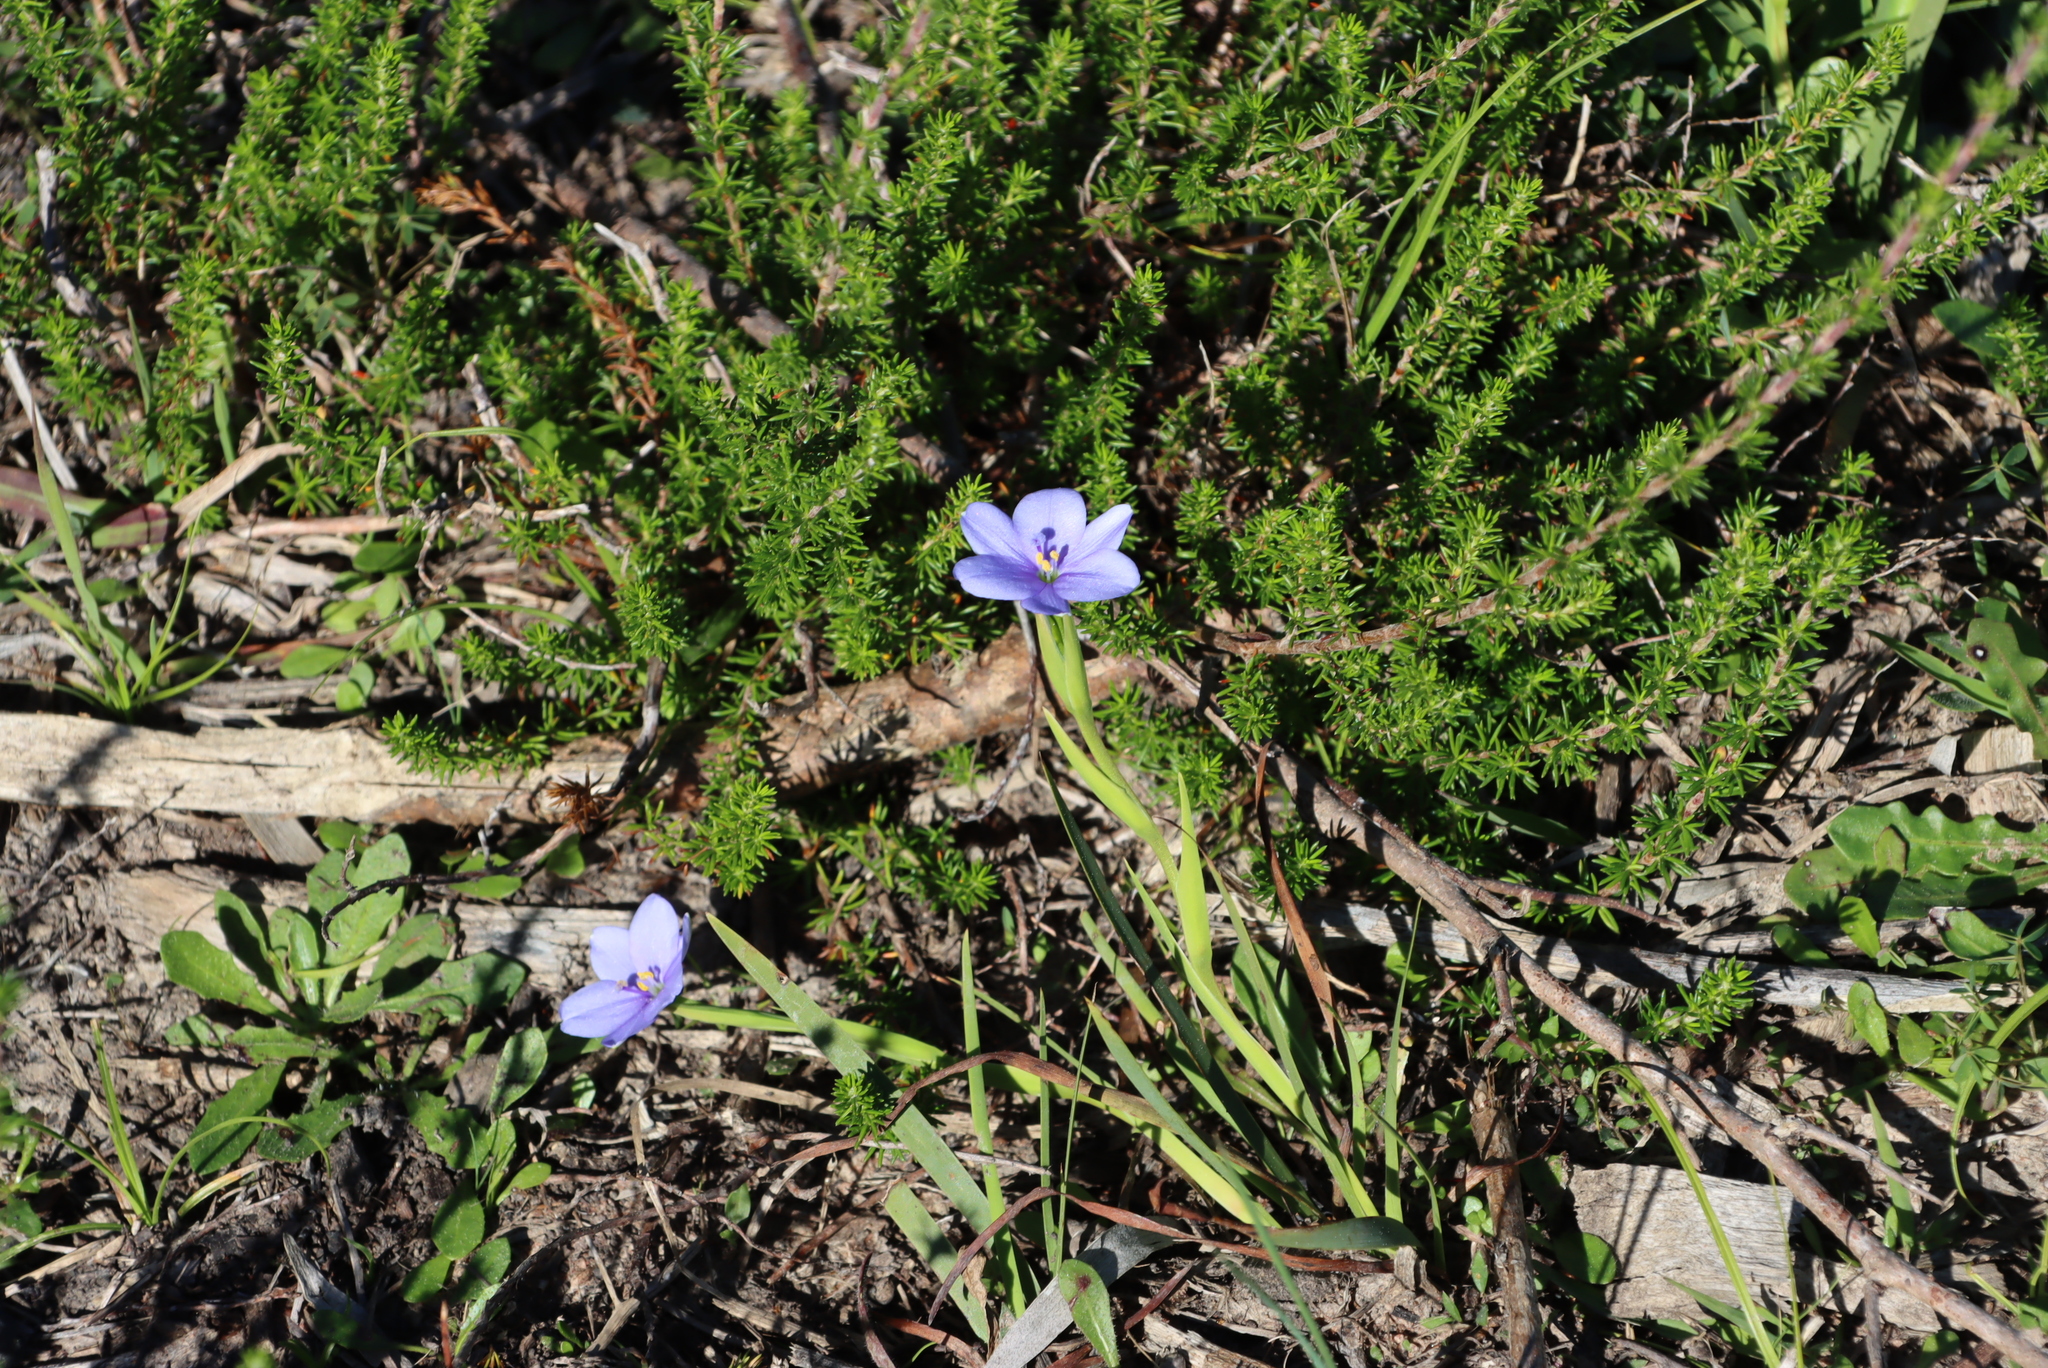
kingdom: Plantae
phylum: Tracheophyta
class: Liliopsida
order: Asparagales
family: Iridaceae
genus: Aristea
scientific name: Aristea pusilla
